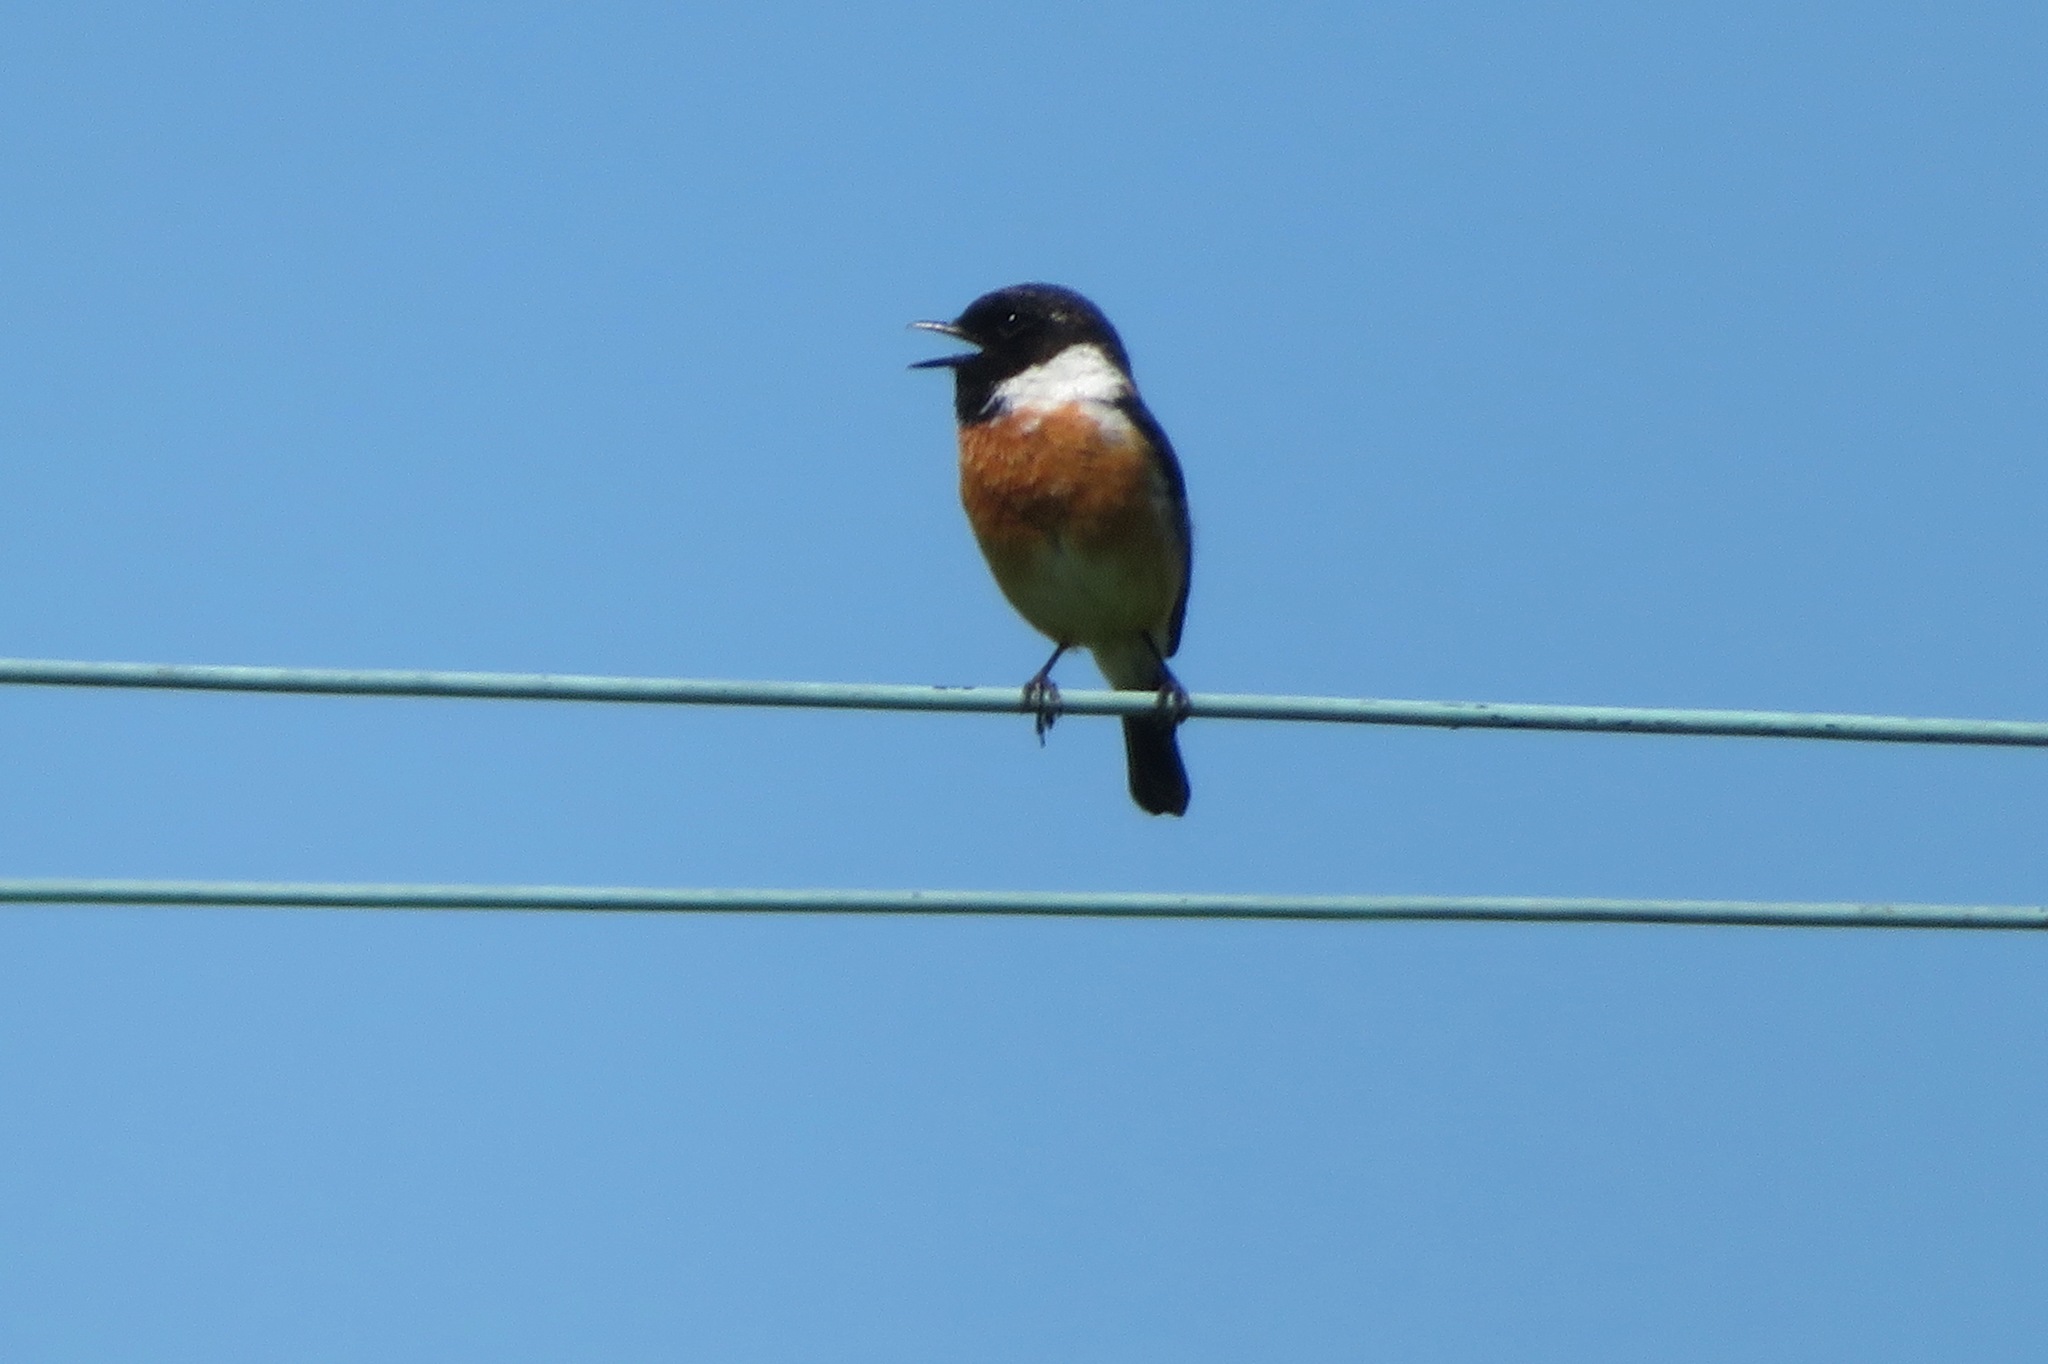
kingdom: Animalia
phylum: Chordata
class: Aves
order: Passeriformes
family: Muscicapidae
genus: Saxicola
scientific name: Saxicola rubicola
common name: European stonechat
